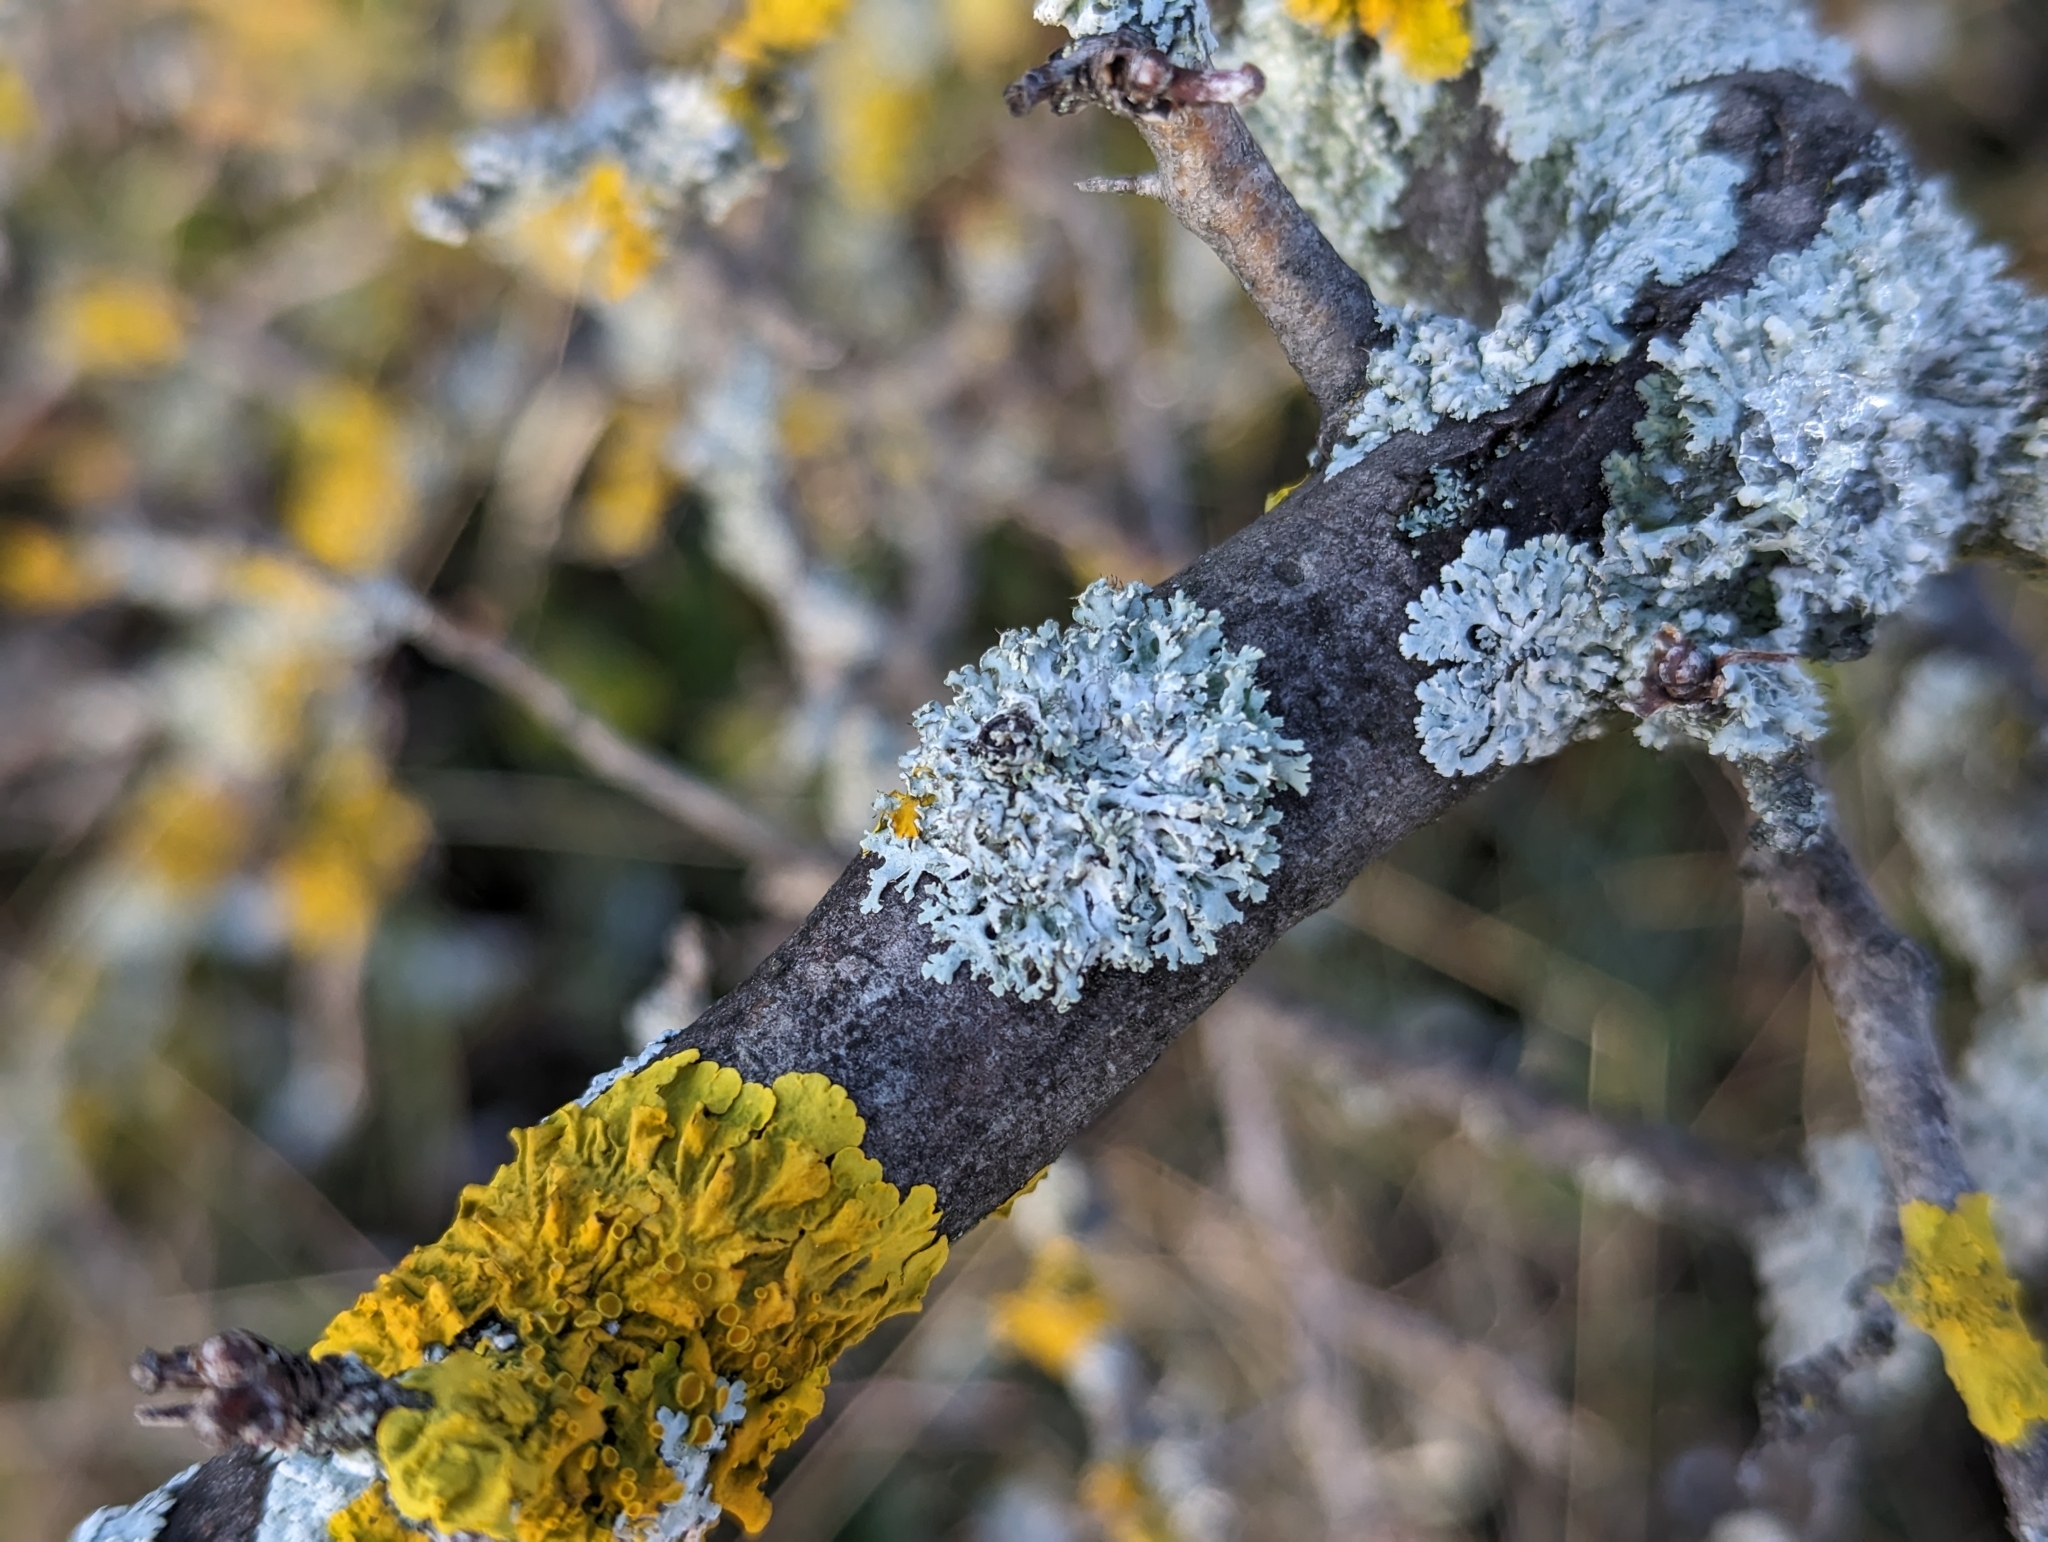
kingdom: Fungi
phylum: Ascomycota
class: Lecanoromycetes
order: Caliciales
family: Physciaceae
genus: Physcia
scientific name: Physcia tenella
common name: Fringed rosette lichen
